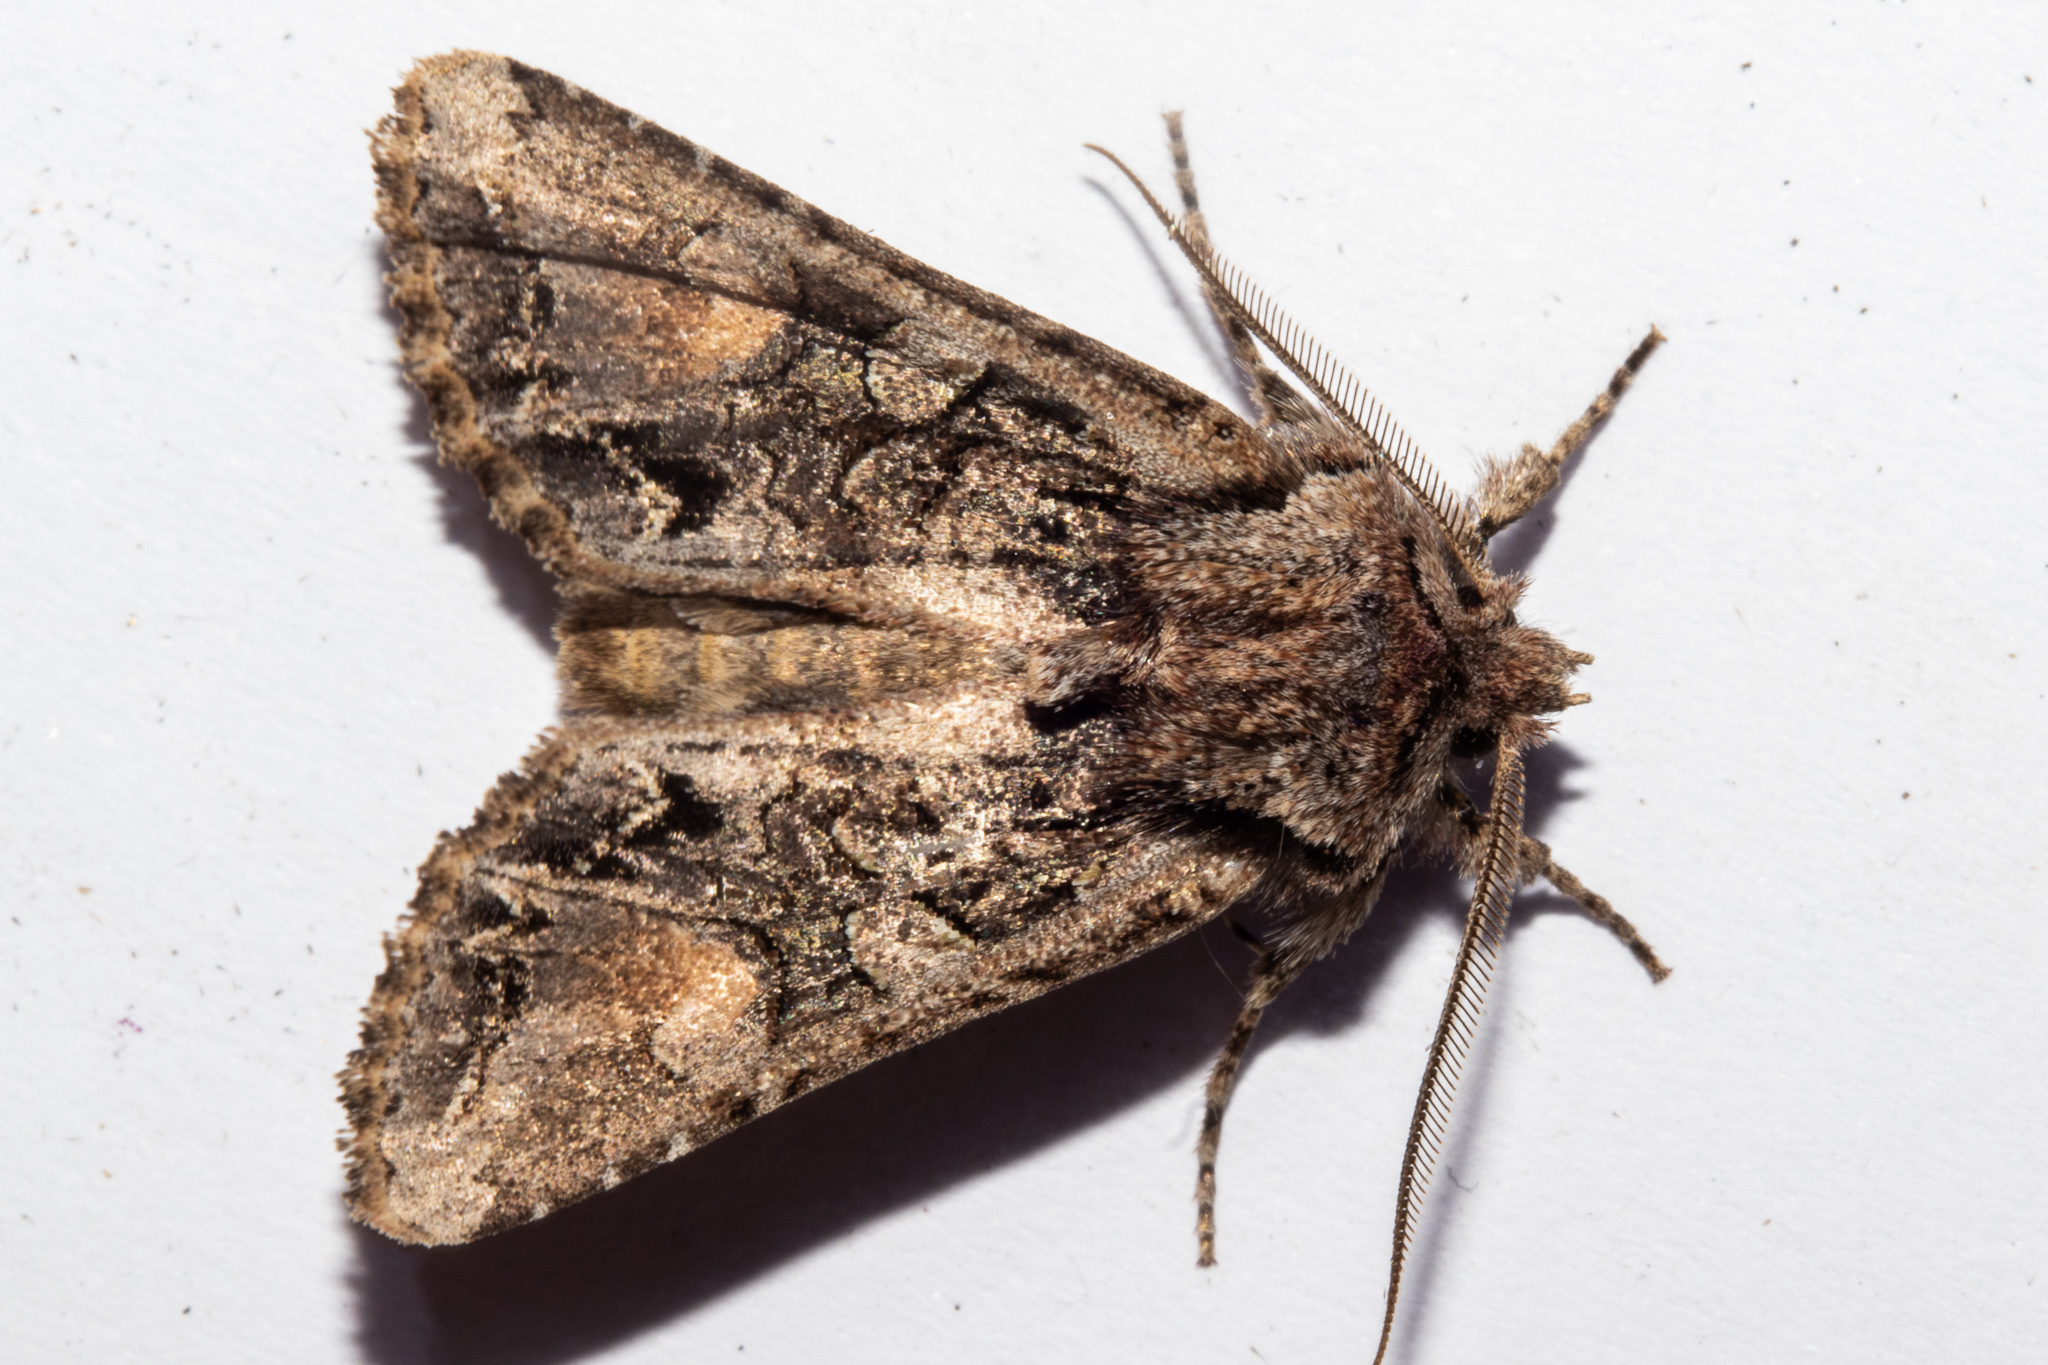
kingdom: Animalia
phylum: Arthropoda
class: Insecta
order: Lepidoptera
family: Noctuidae
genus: Ichneutica
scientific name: Ichneutica
